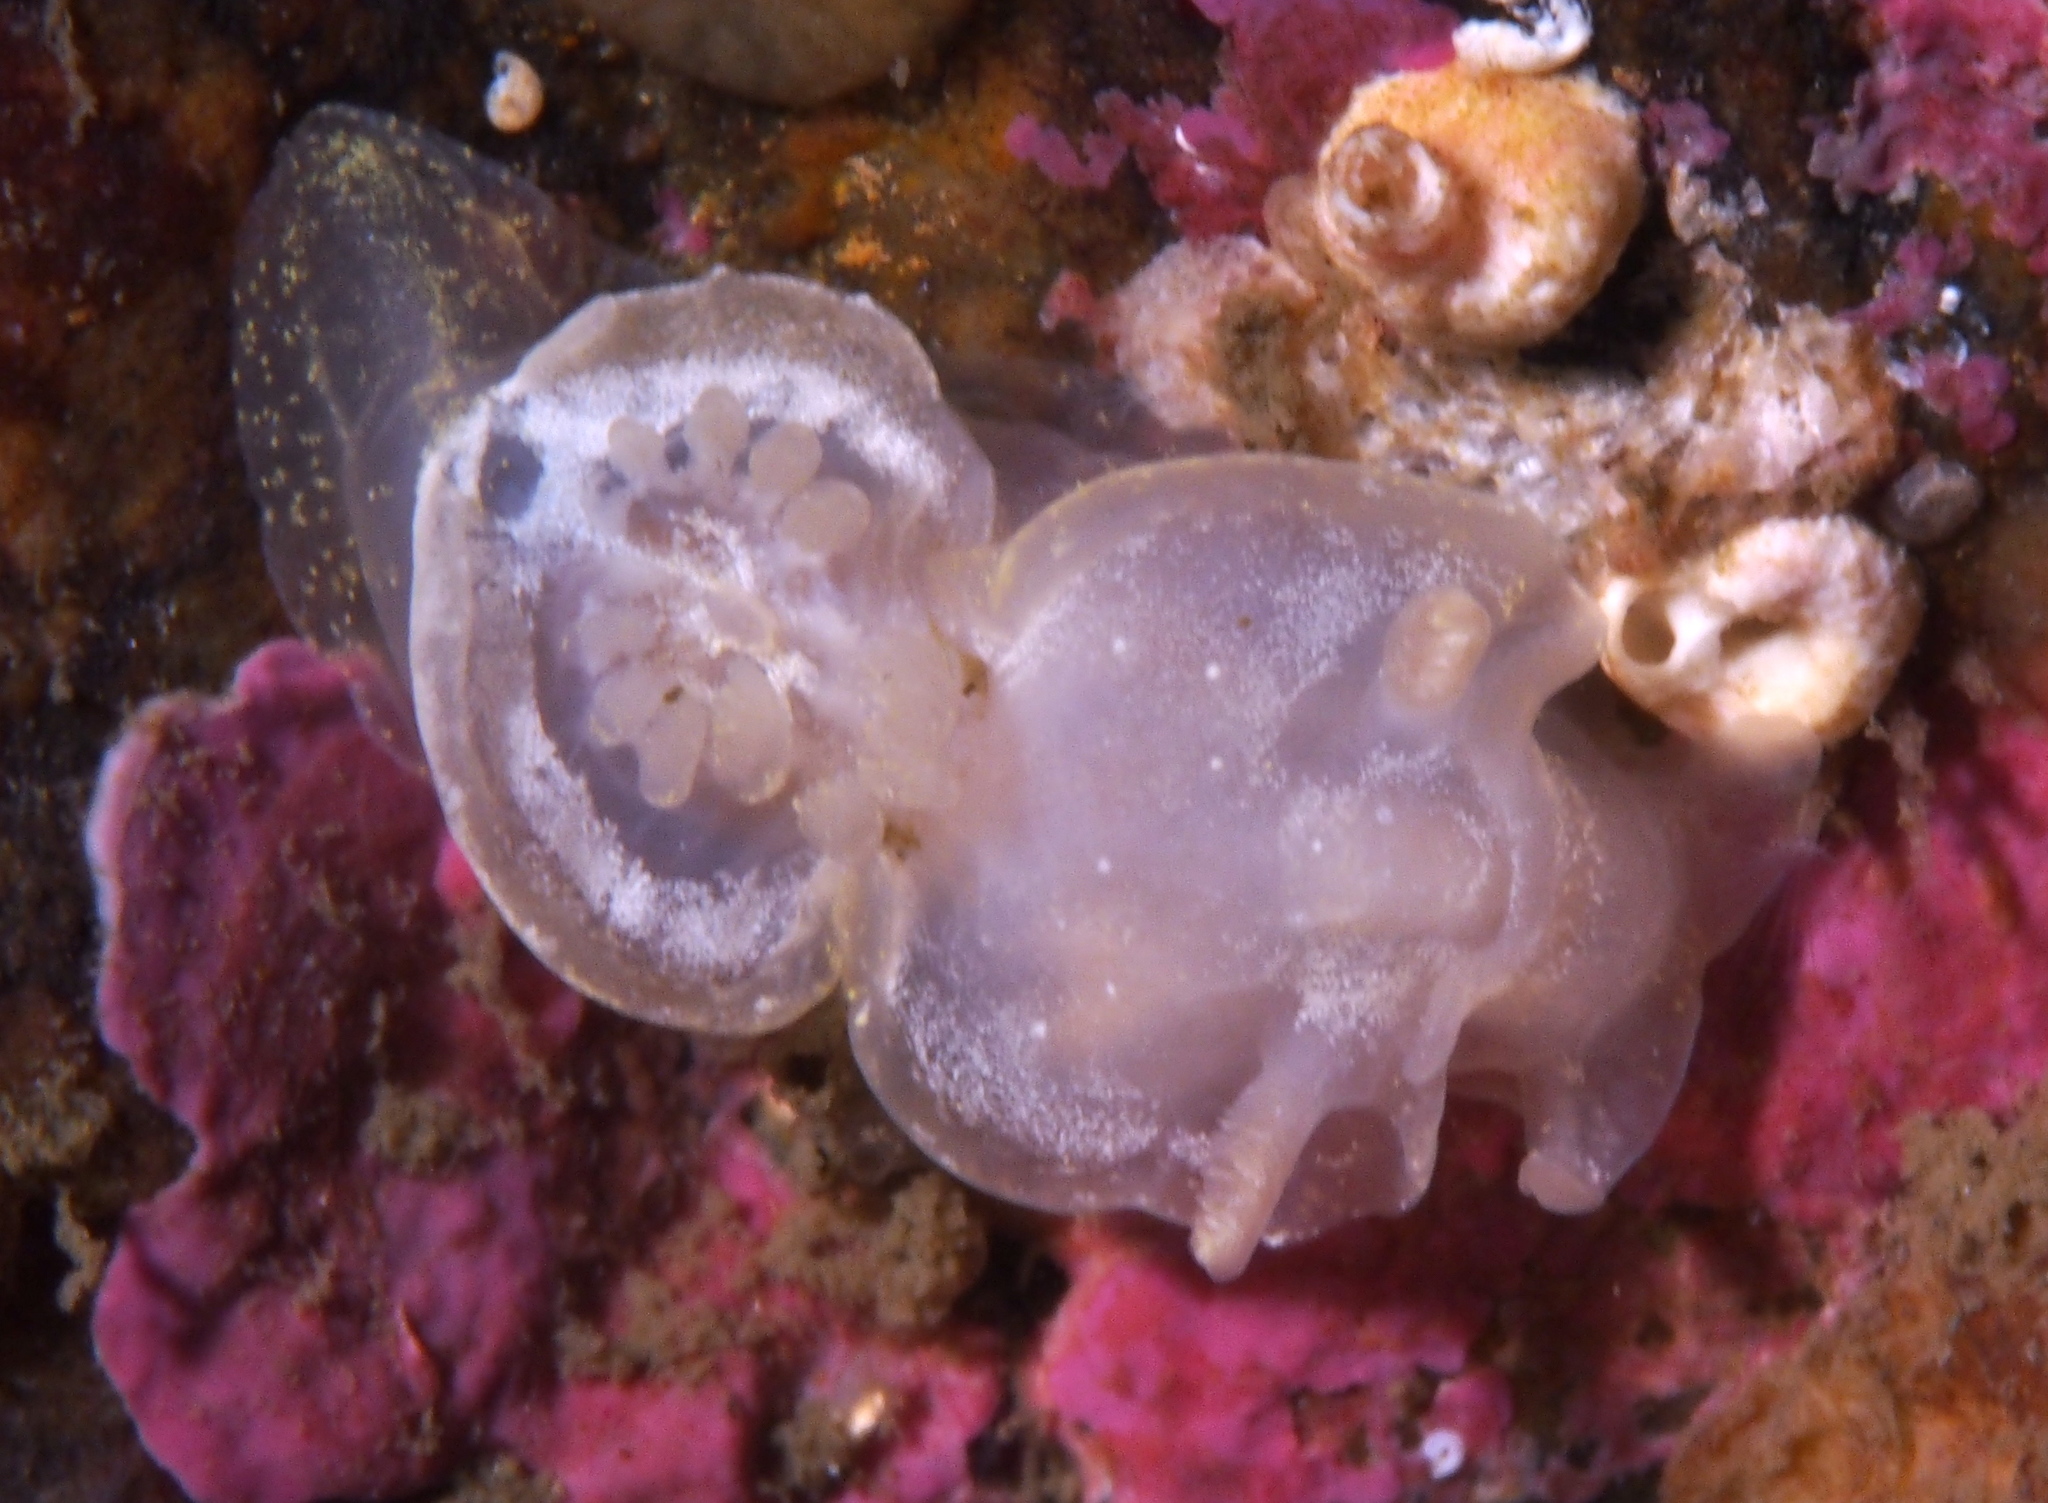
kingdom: Animalia
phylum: Mollusca
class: Gastropoda
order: Nudibranchia
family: Goniodorididae
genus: Okenia
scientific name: Okenia
